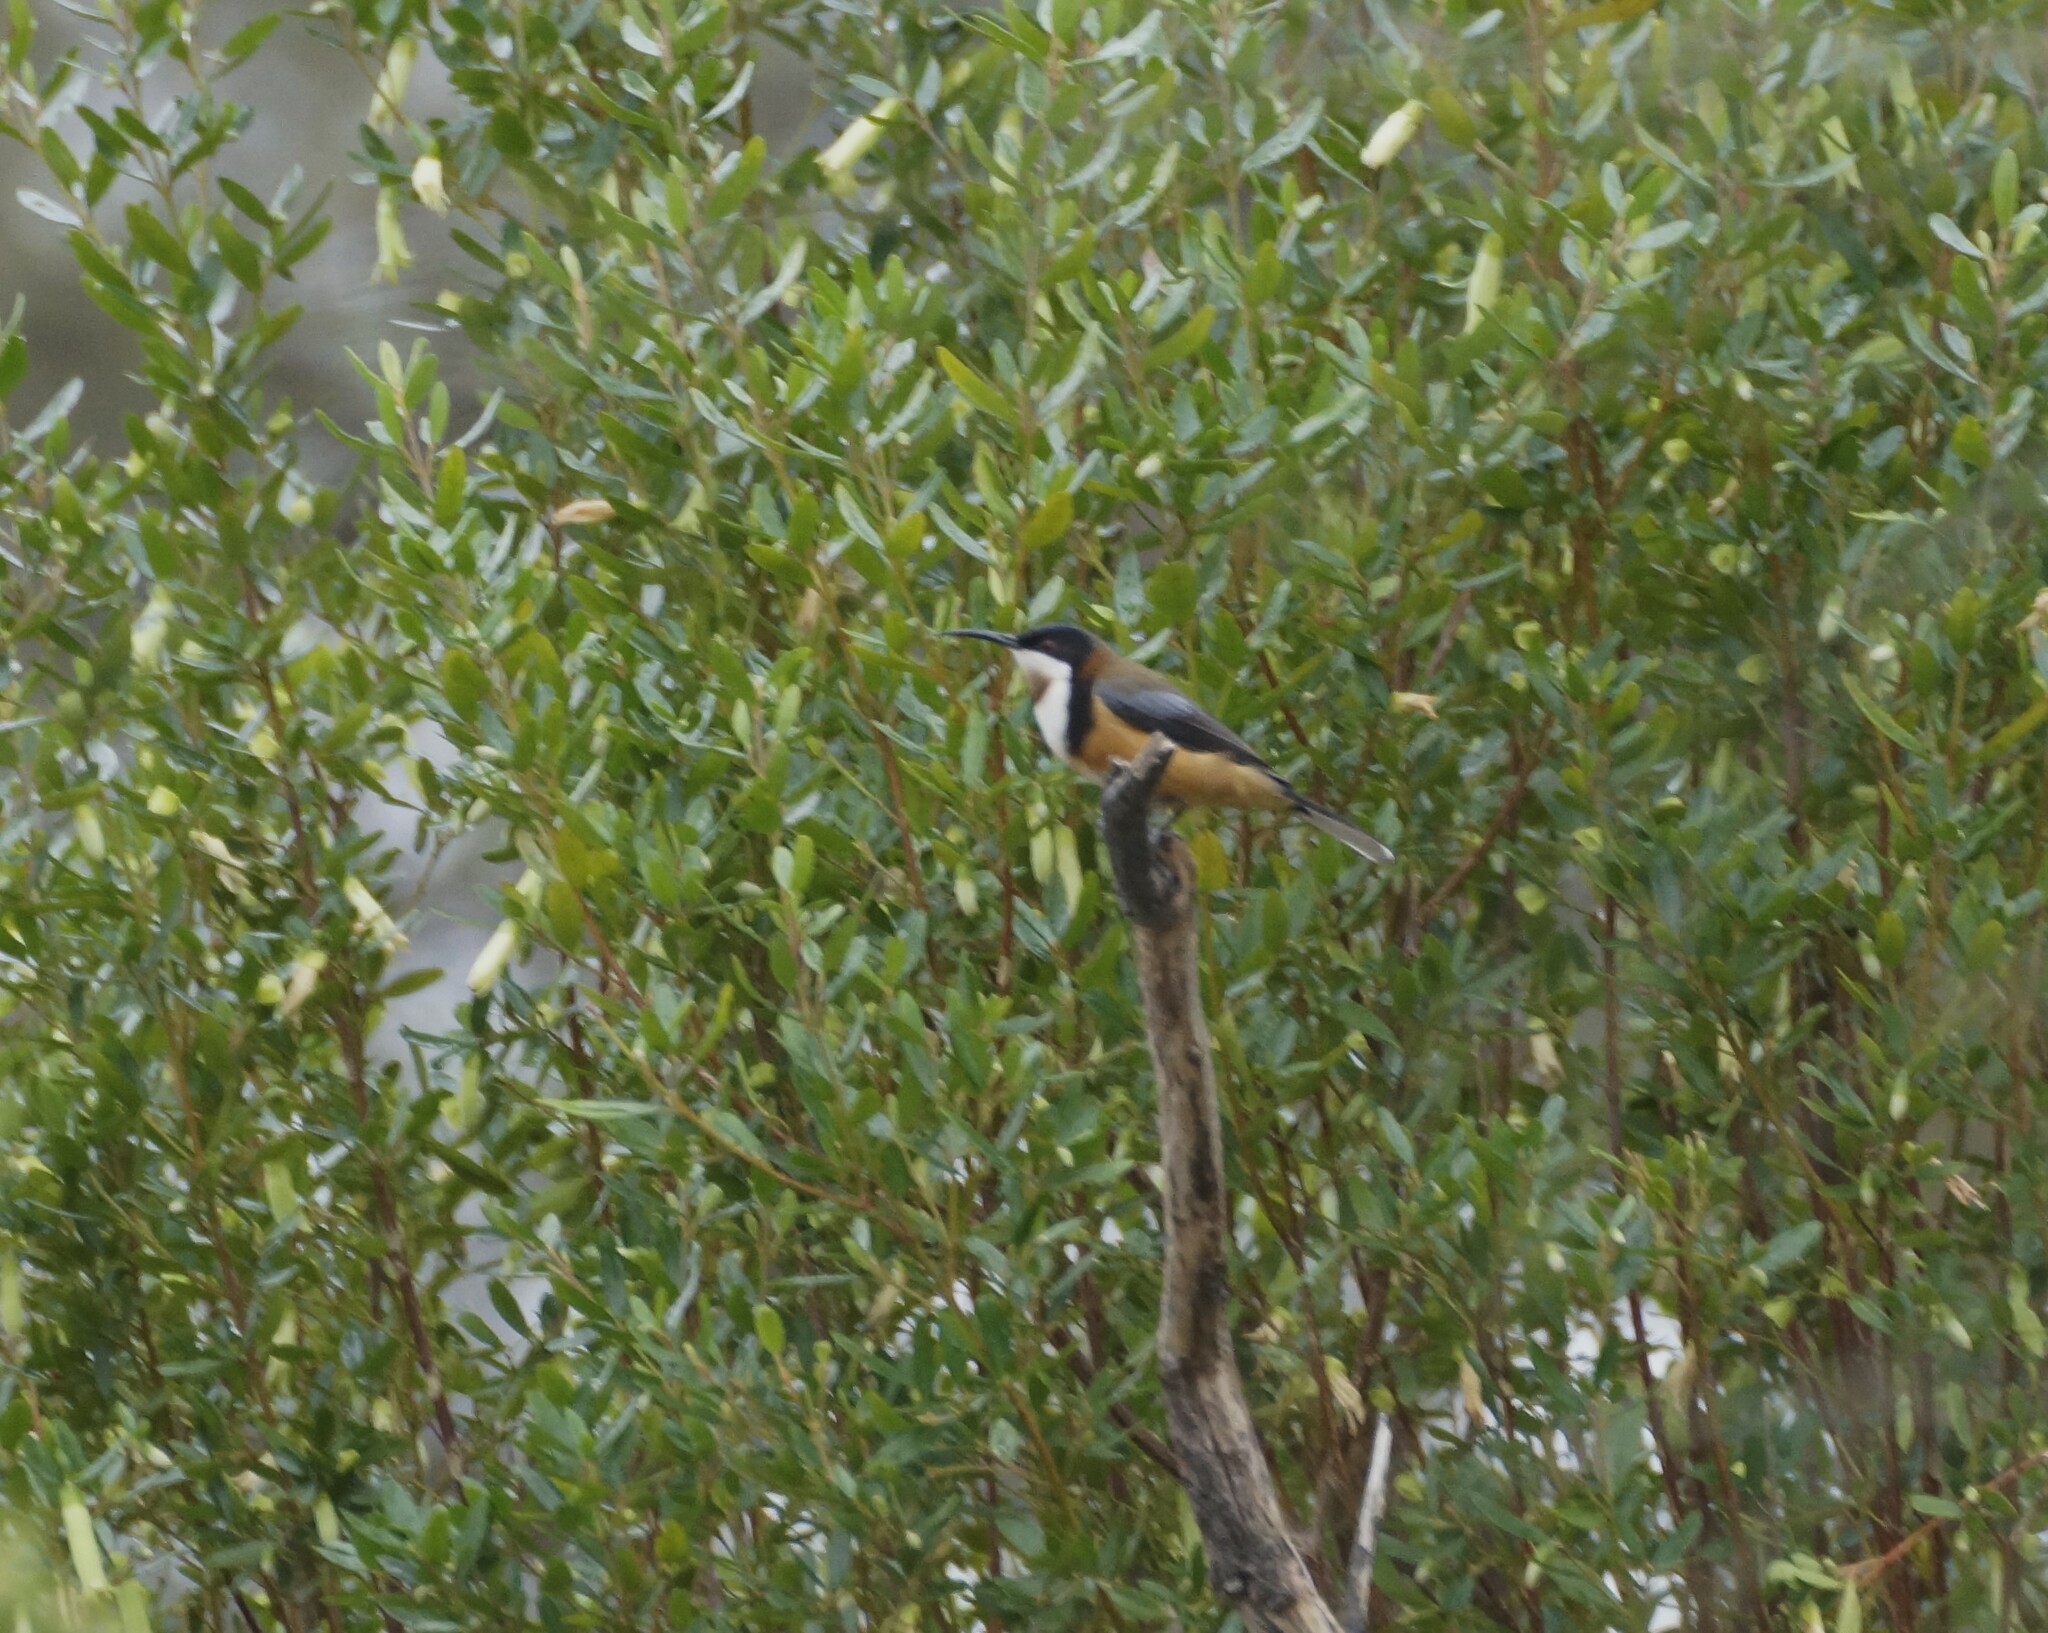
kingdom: Animalia
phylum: Chordata
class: Aves
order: Passeriformes
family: Meliphagidae
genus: Acanthorhynchus
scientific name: Acanthorhynchus tenuirostris
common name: Eastern spinebill
